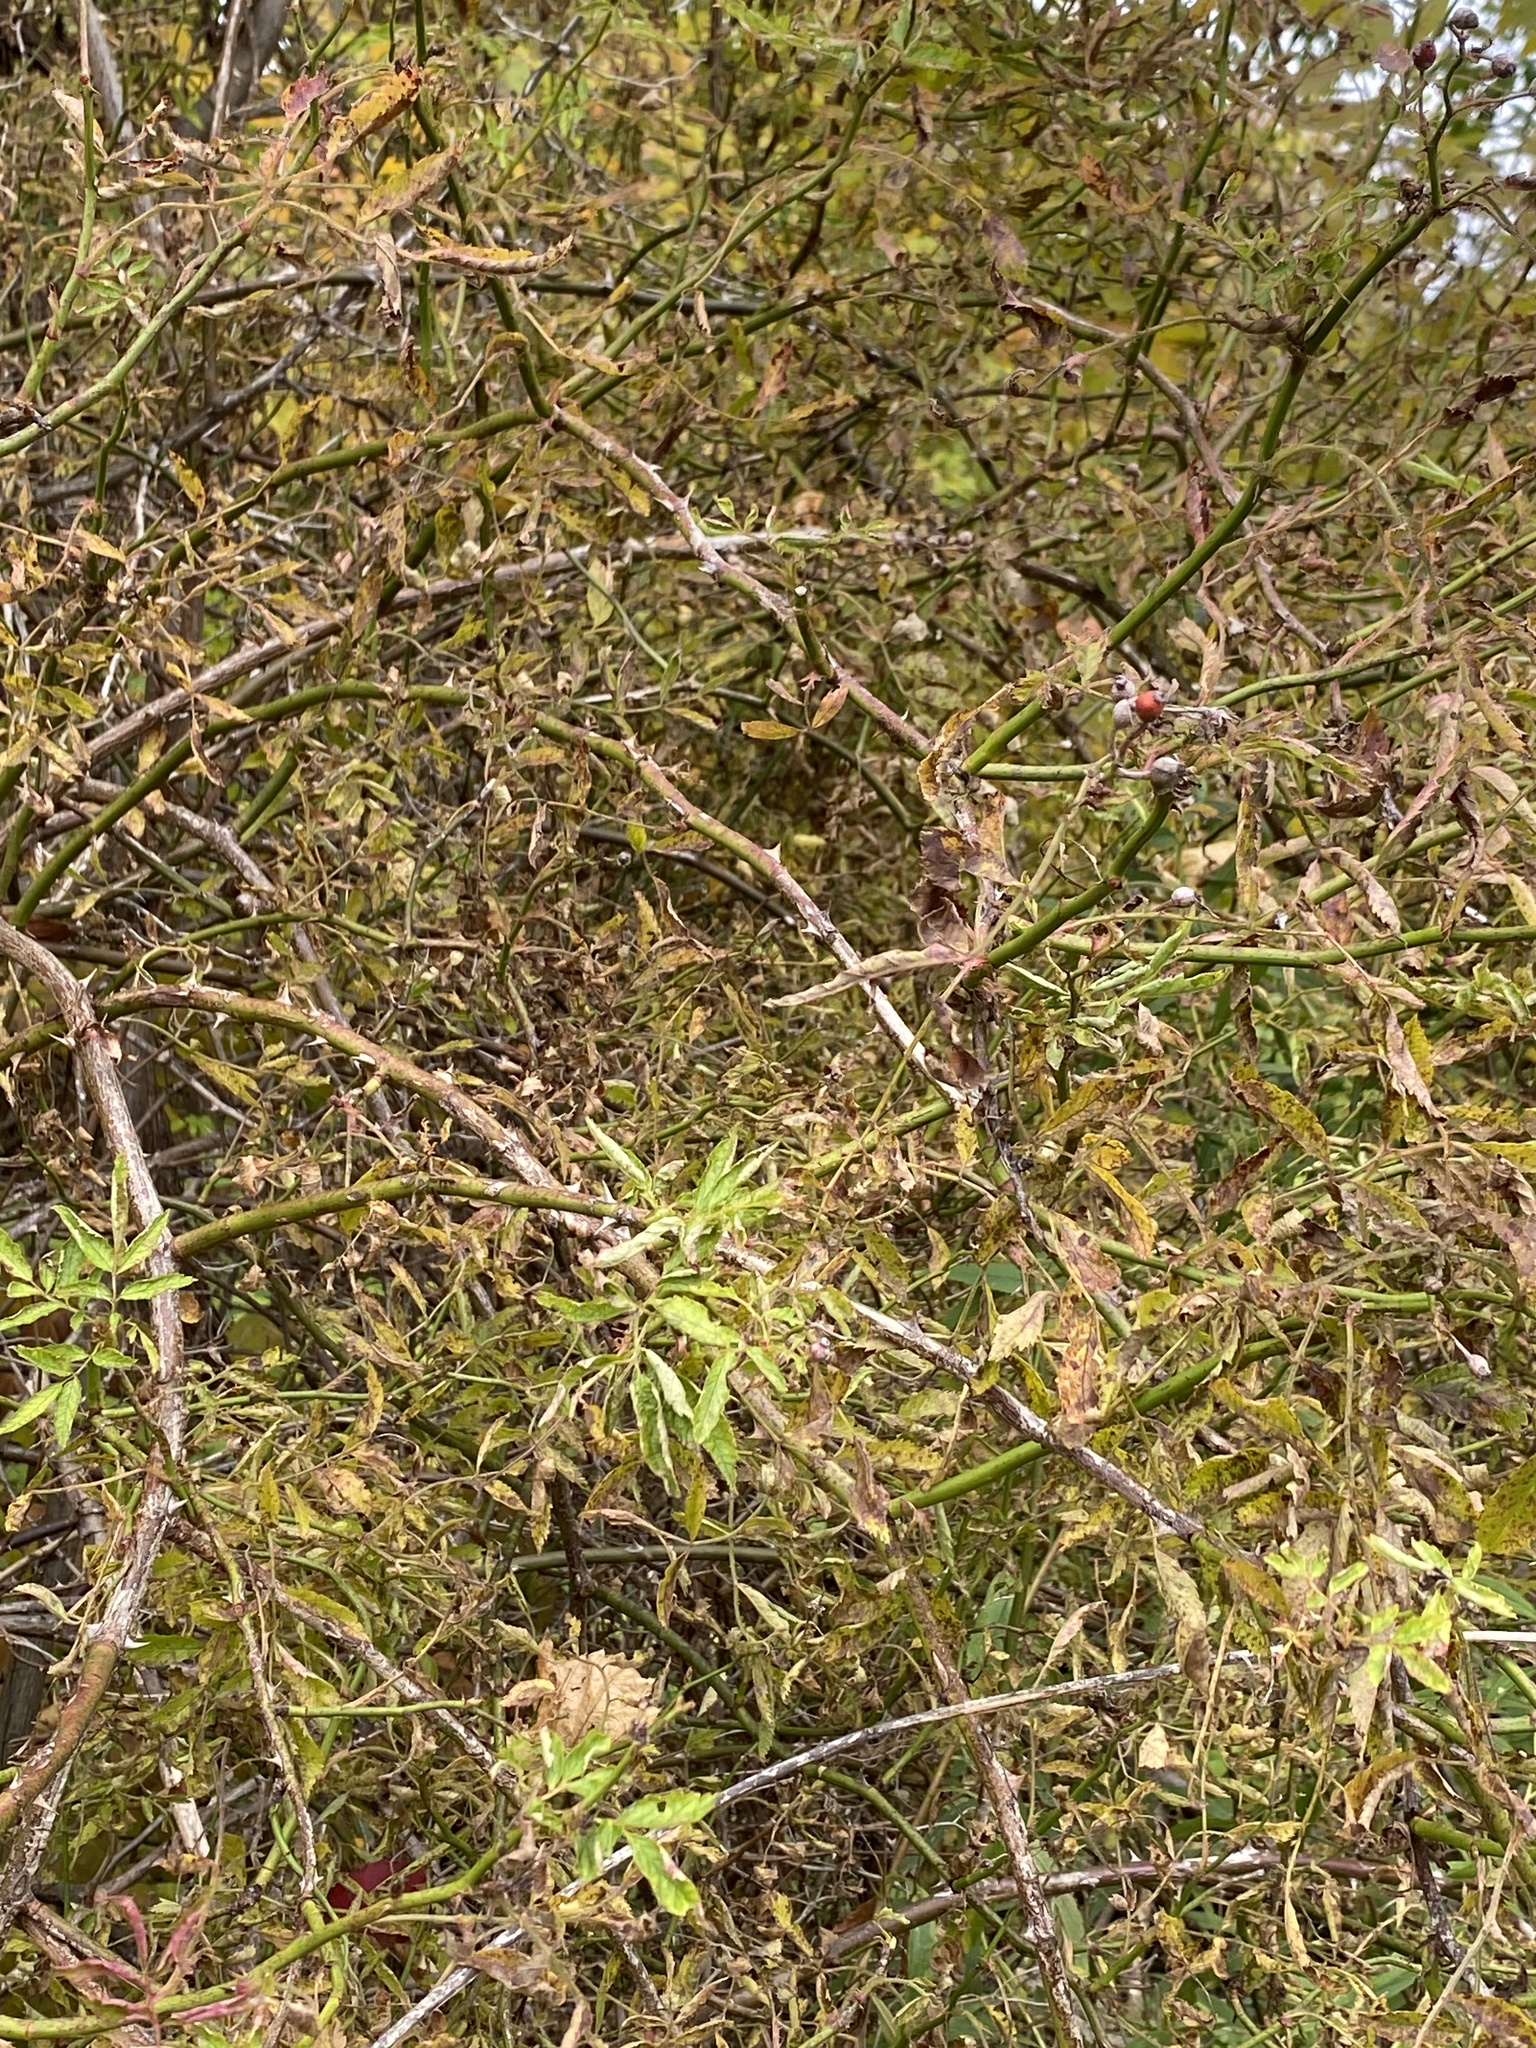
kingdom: Viruses
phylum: Negarnaviricota
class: Ellioviricetes
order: Bunyavirales
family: Fimoviridae
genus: Emaravirus
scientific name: Emaravirus rosae
